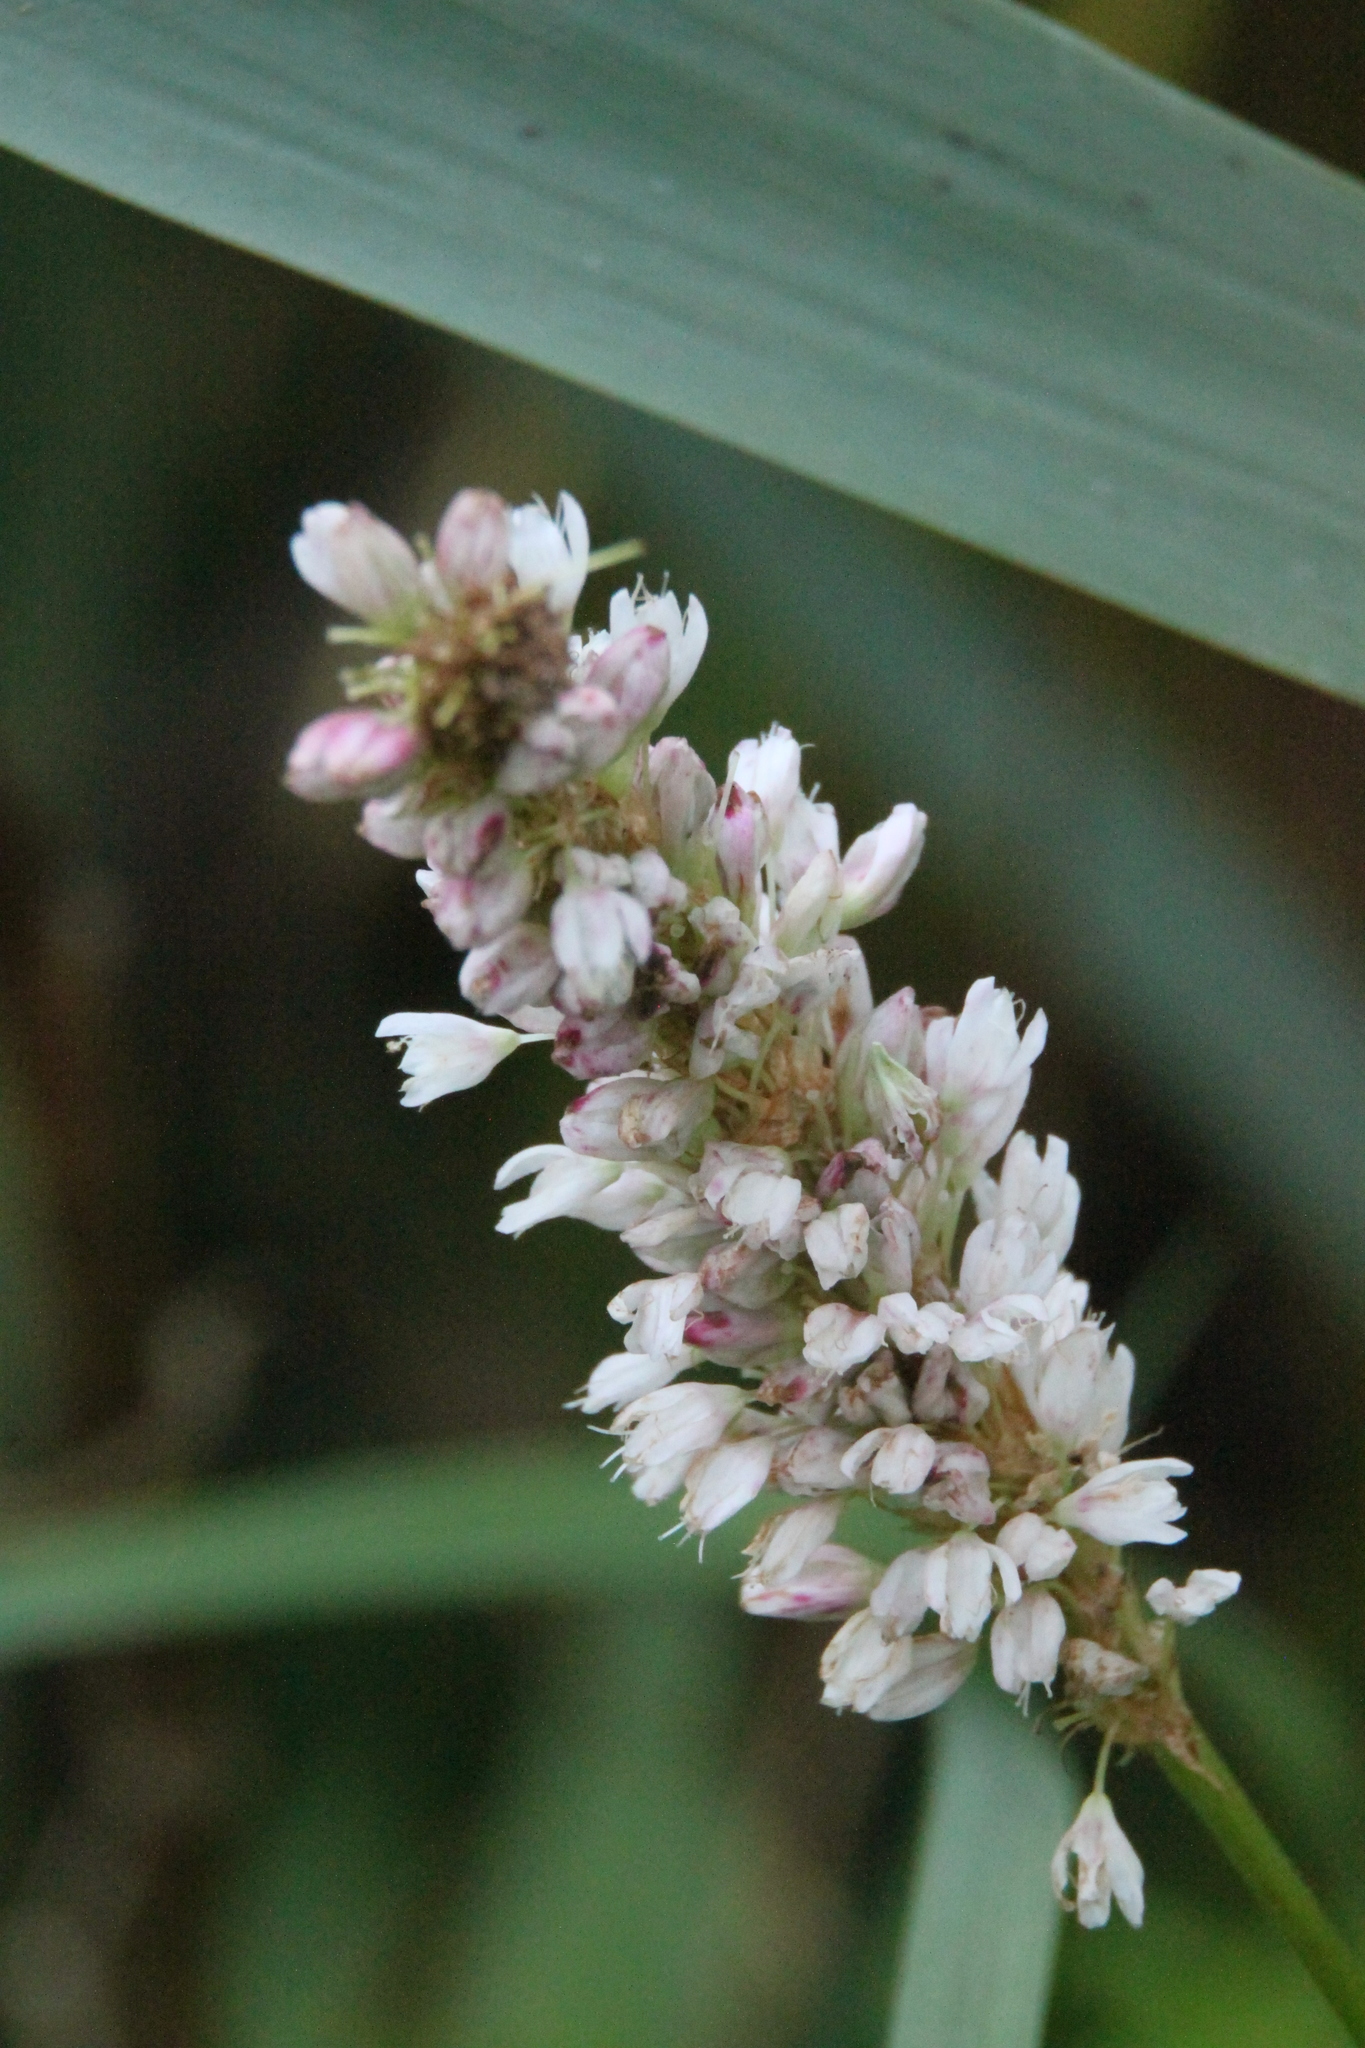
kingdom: Plantae
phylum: Tracheophyta
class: Magnoliopsida
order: Caryophyllales
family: Polygonaceae
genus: Bistorta
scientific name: Bistorta officinalis
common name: Common bistort
